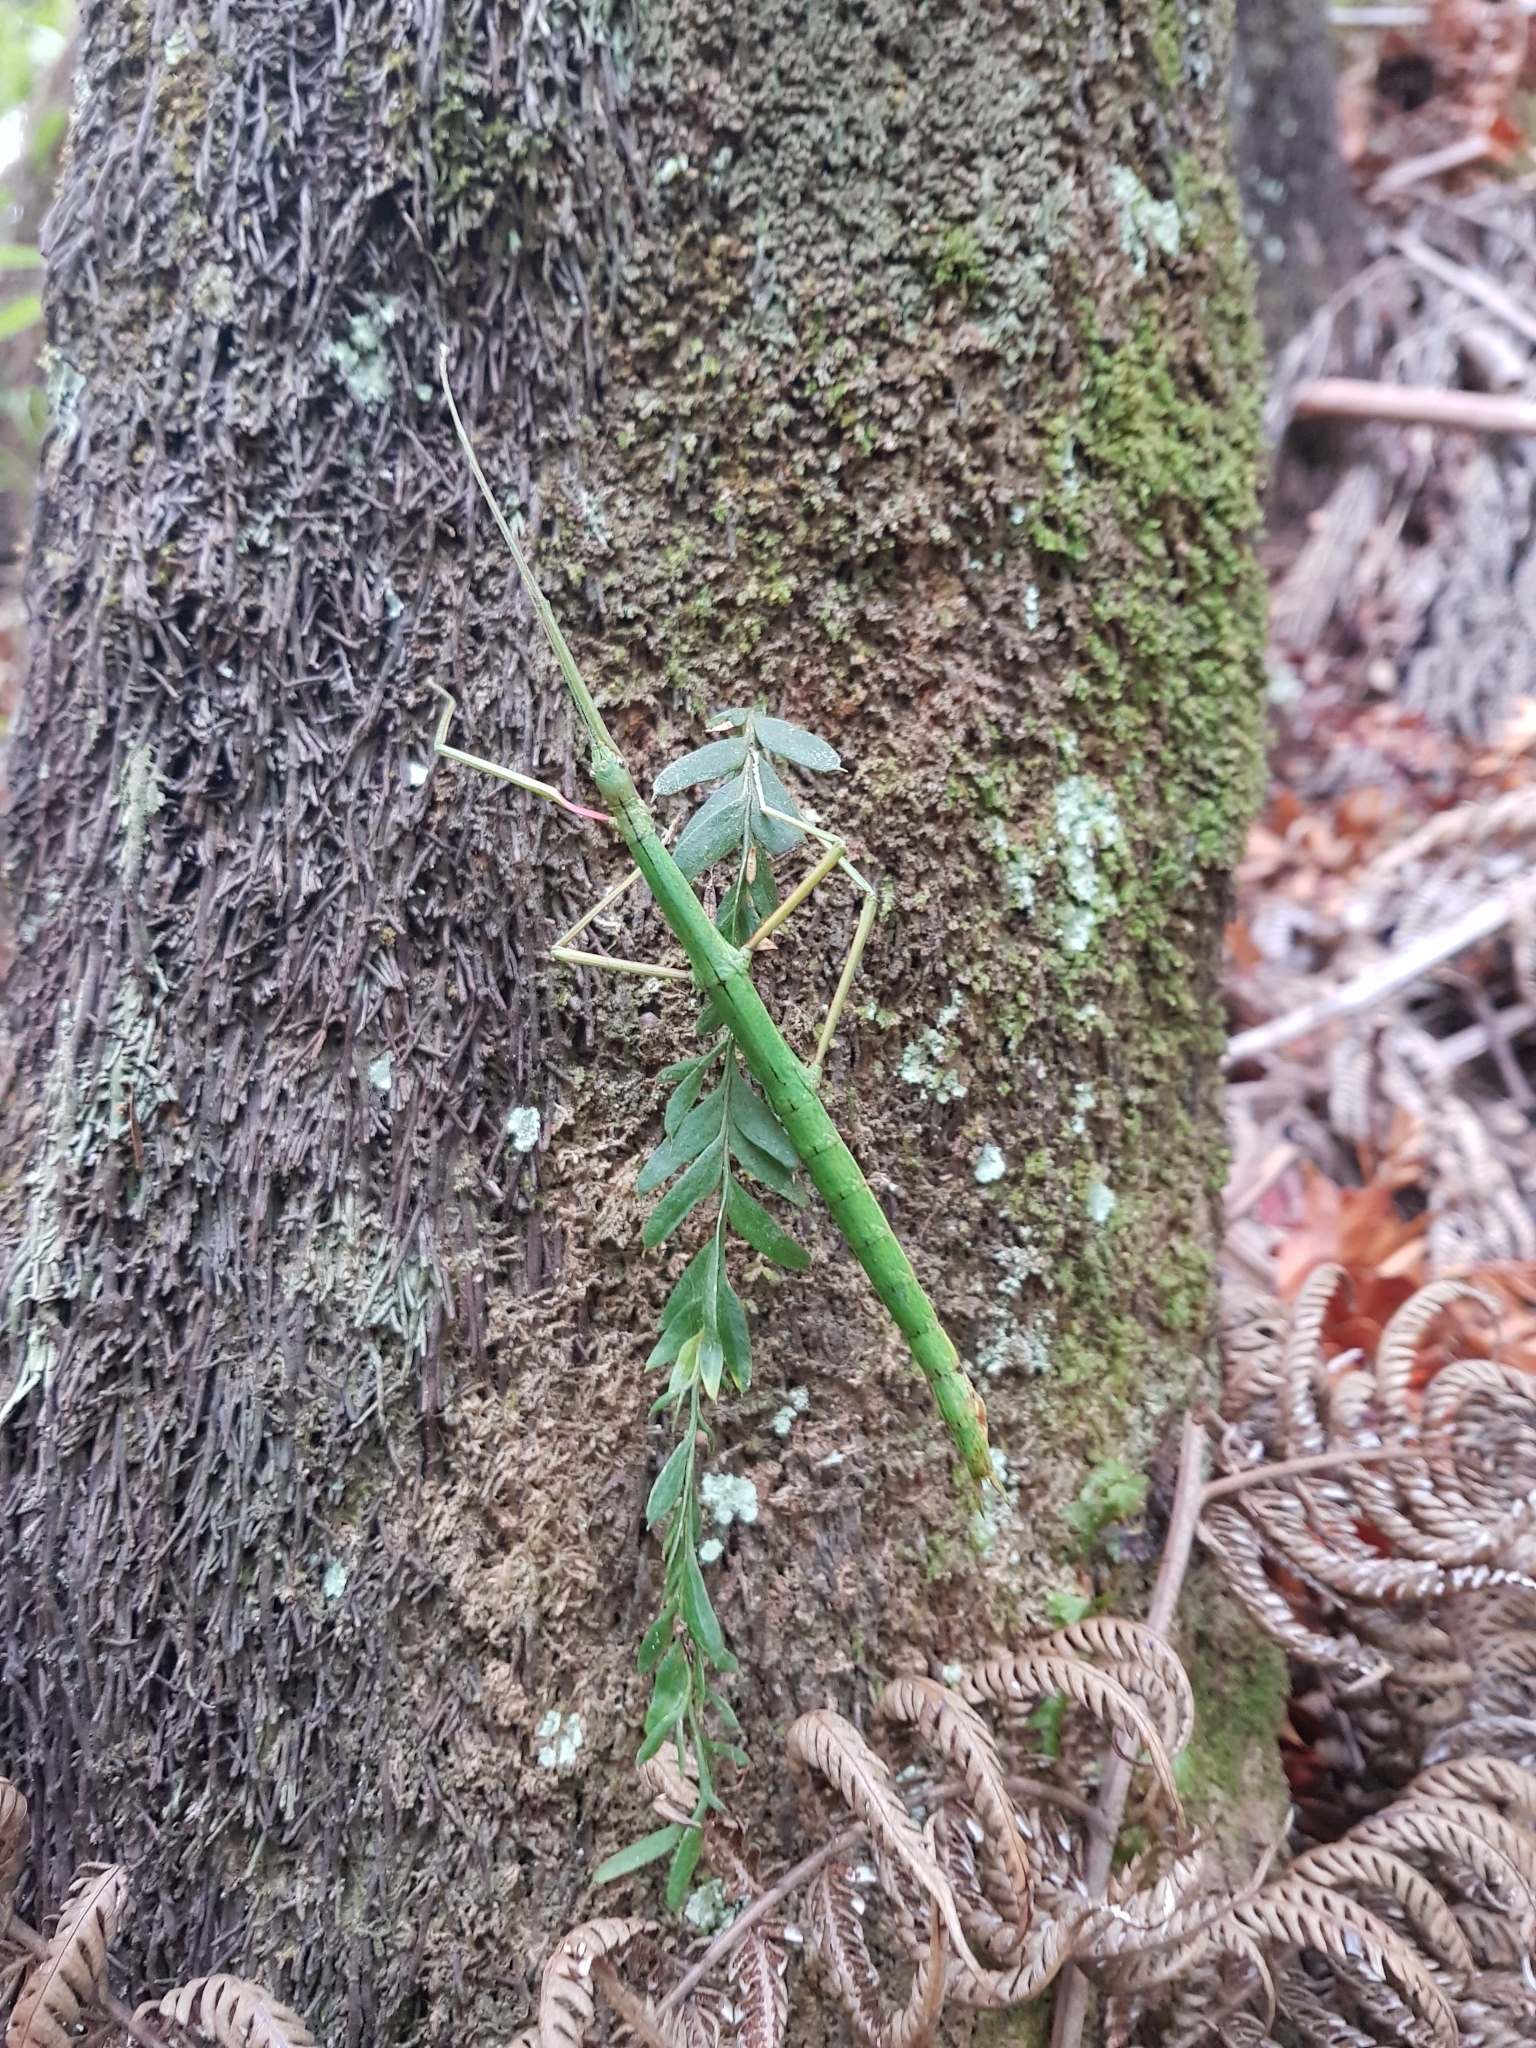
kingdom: Animalia
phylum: Arthropoda
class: Insecta
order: Phasmida
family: Phasmatidae
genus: Clitarchus
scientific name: Clitarchus hookeri
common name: Smooth stick insect
